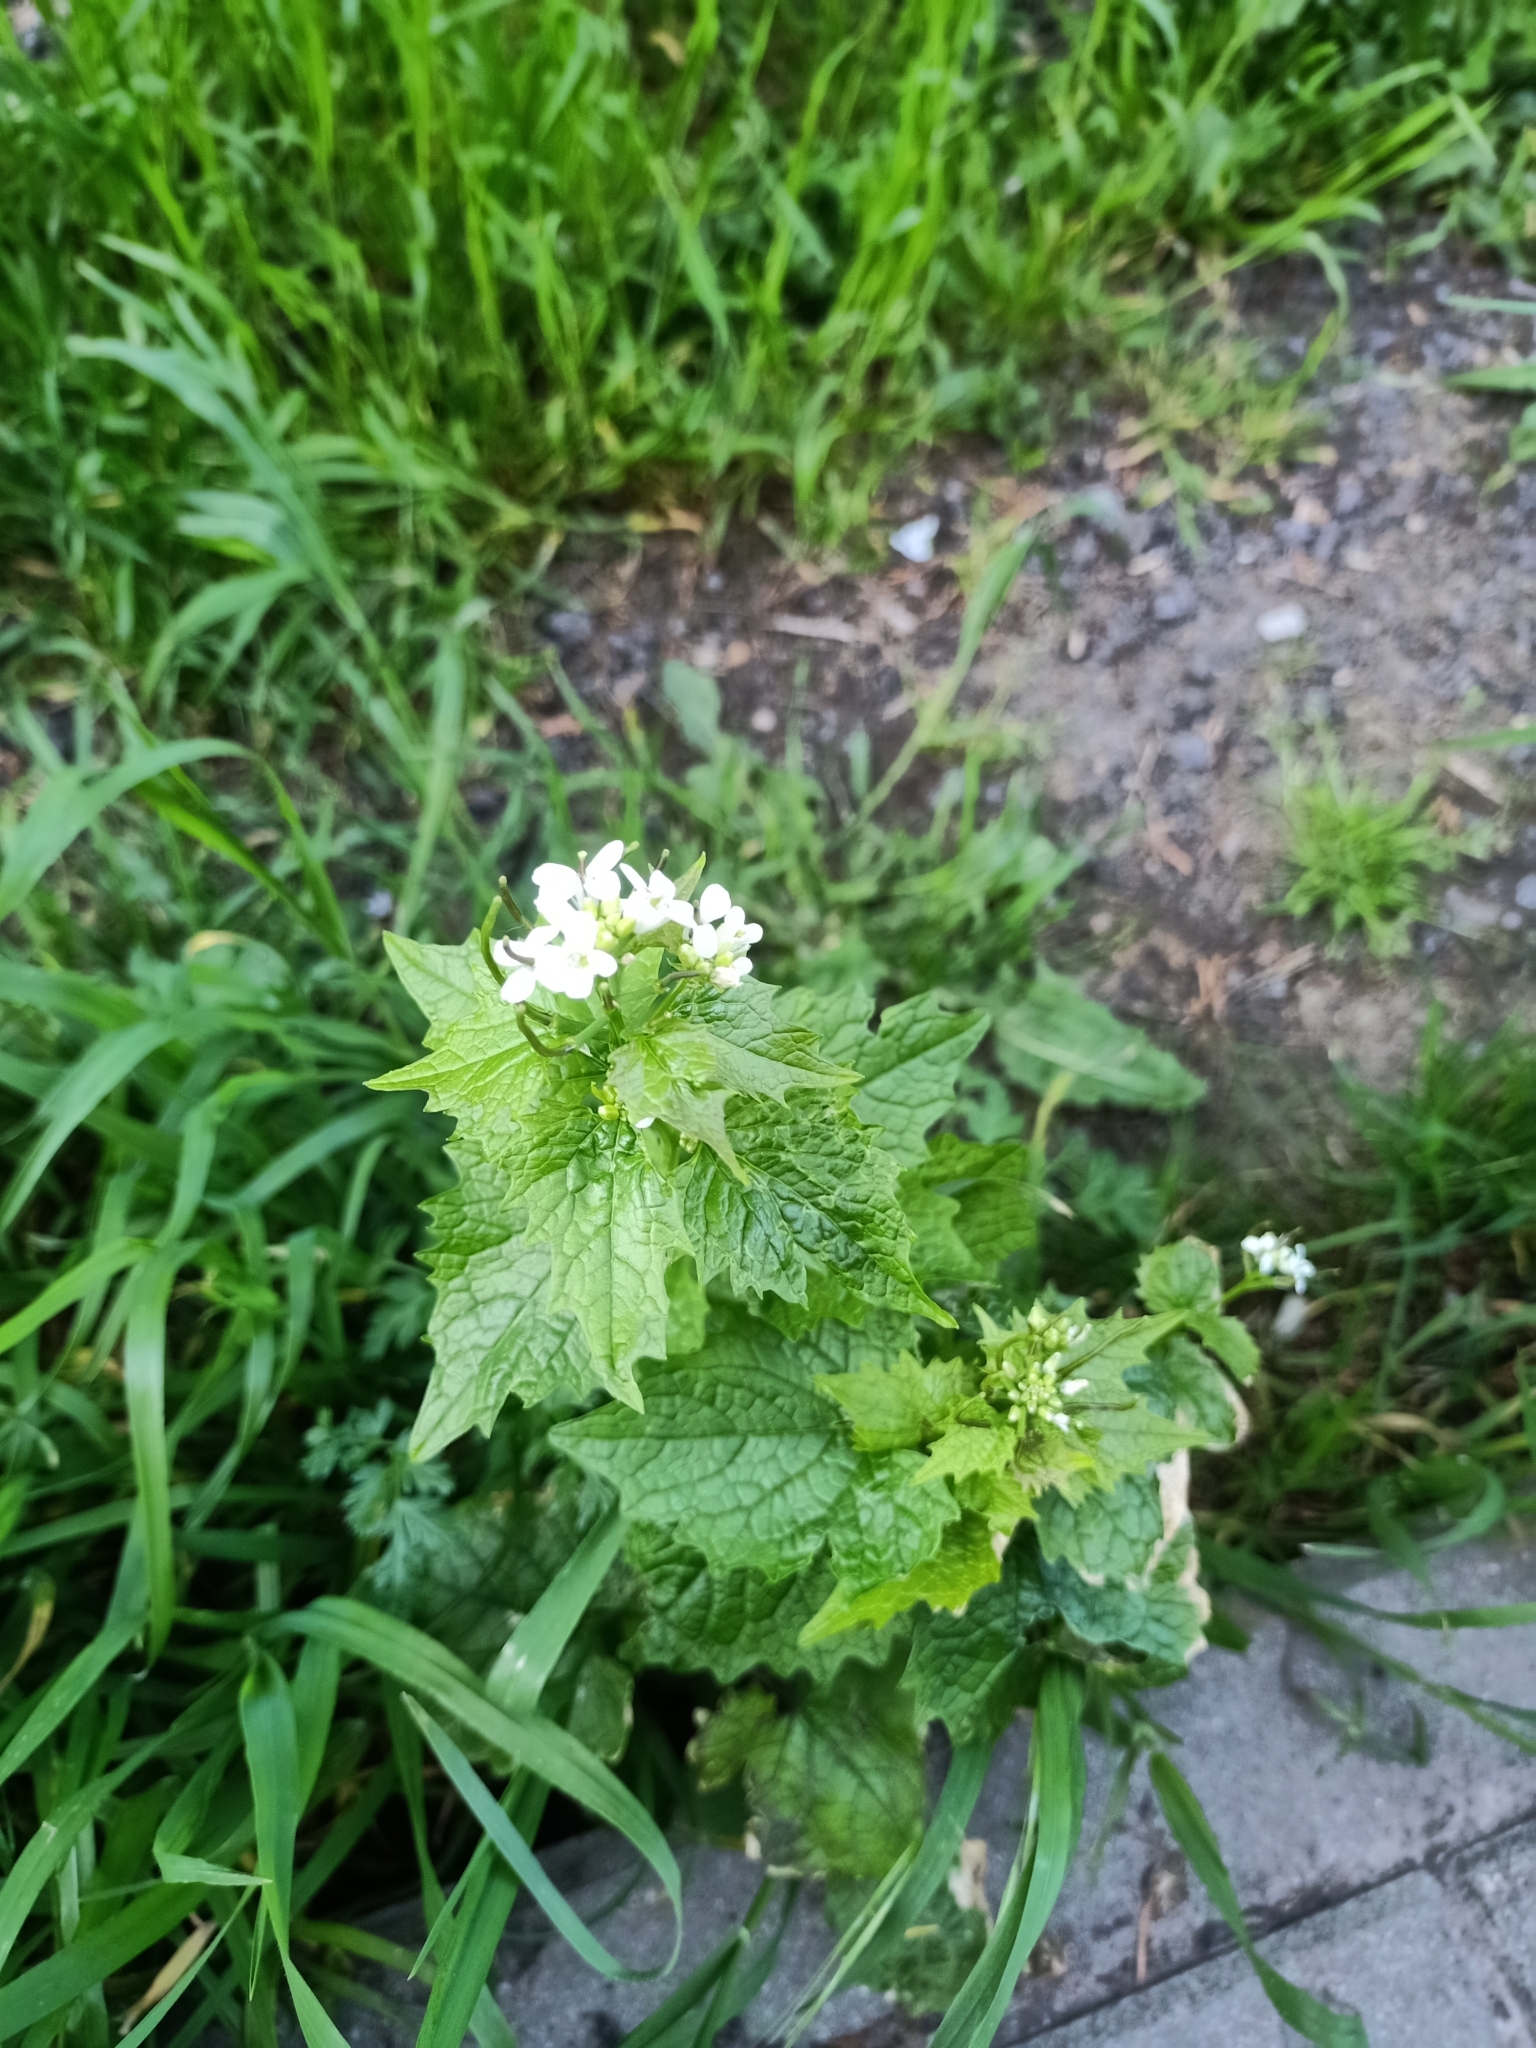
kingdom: Plantae
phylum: Tracheophyta
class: Magnoliopsida
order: Brassicales
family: Brassicaceae
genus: Alliaria
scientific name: Alliaria petiolata
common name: Garlic mustard
